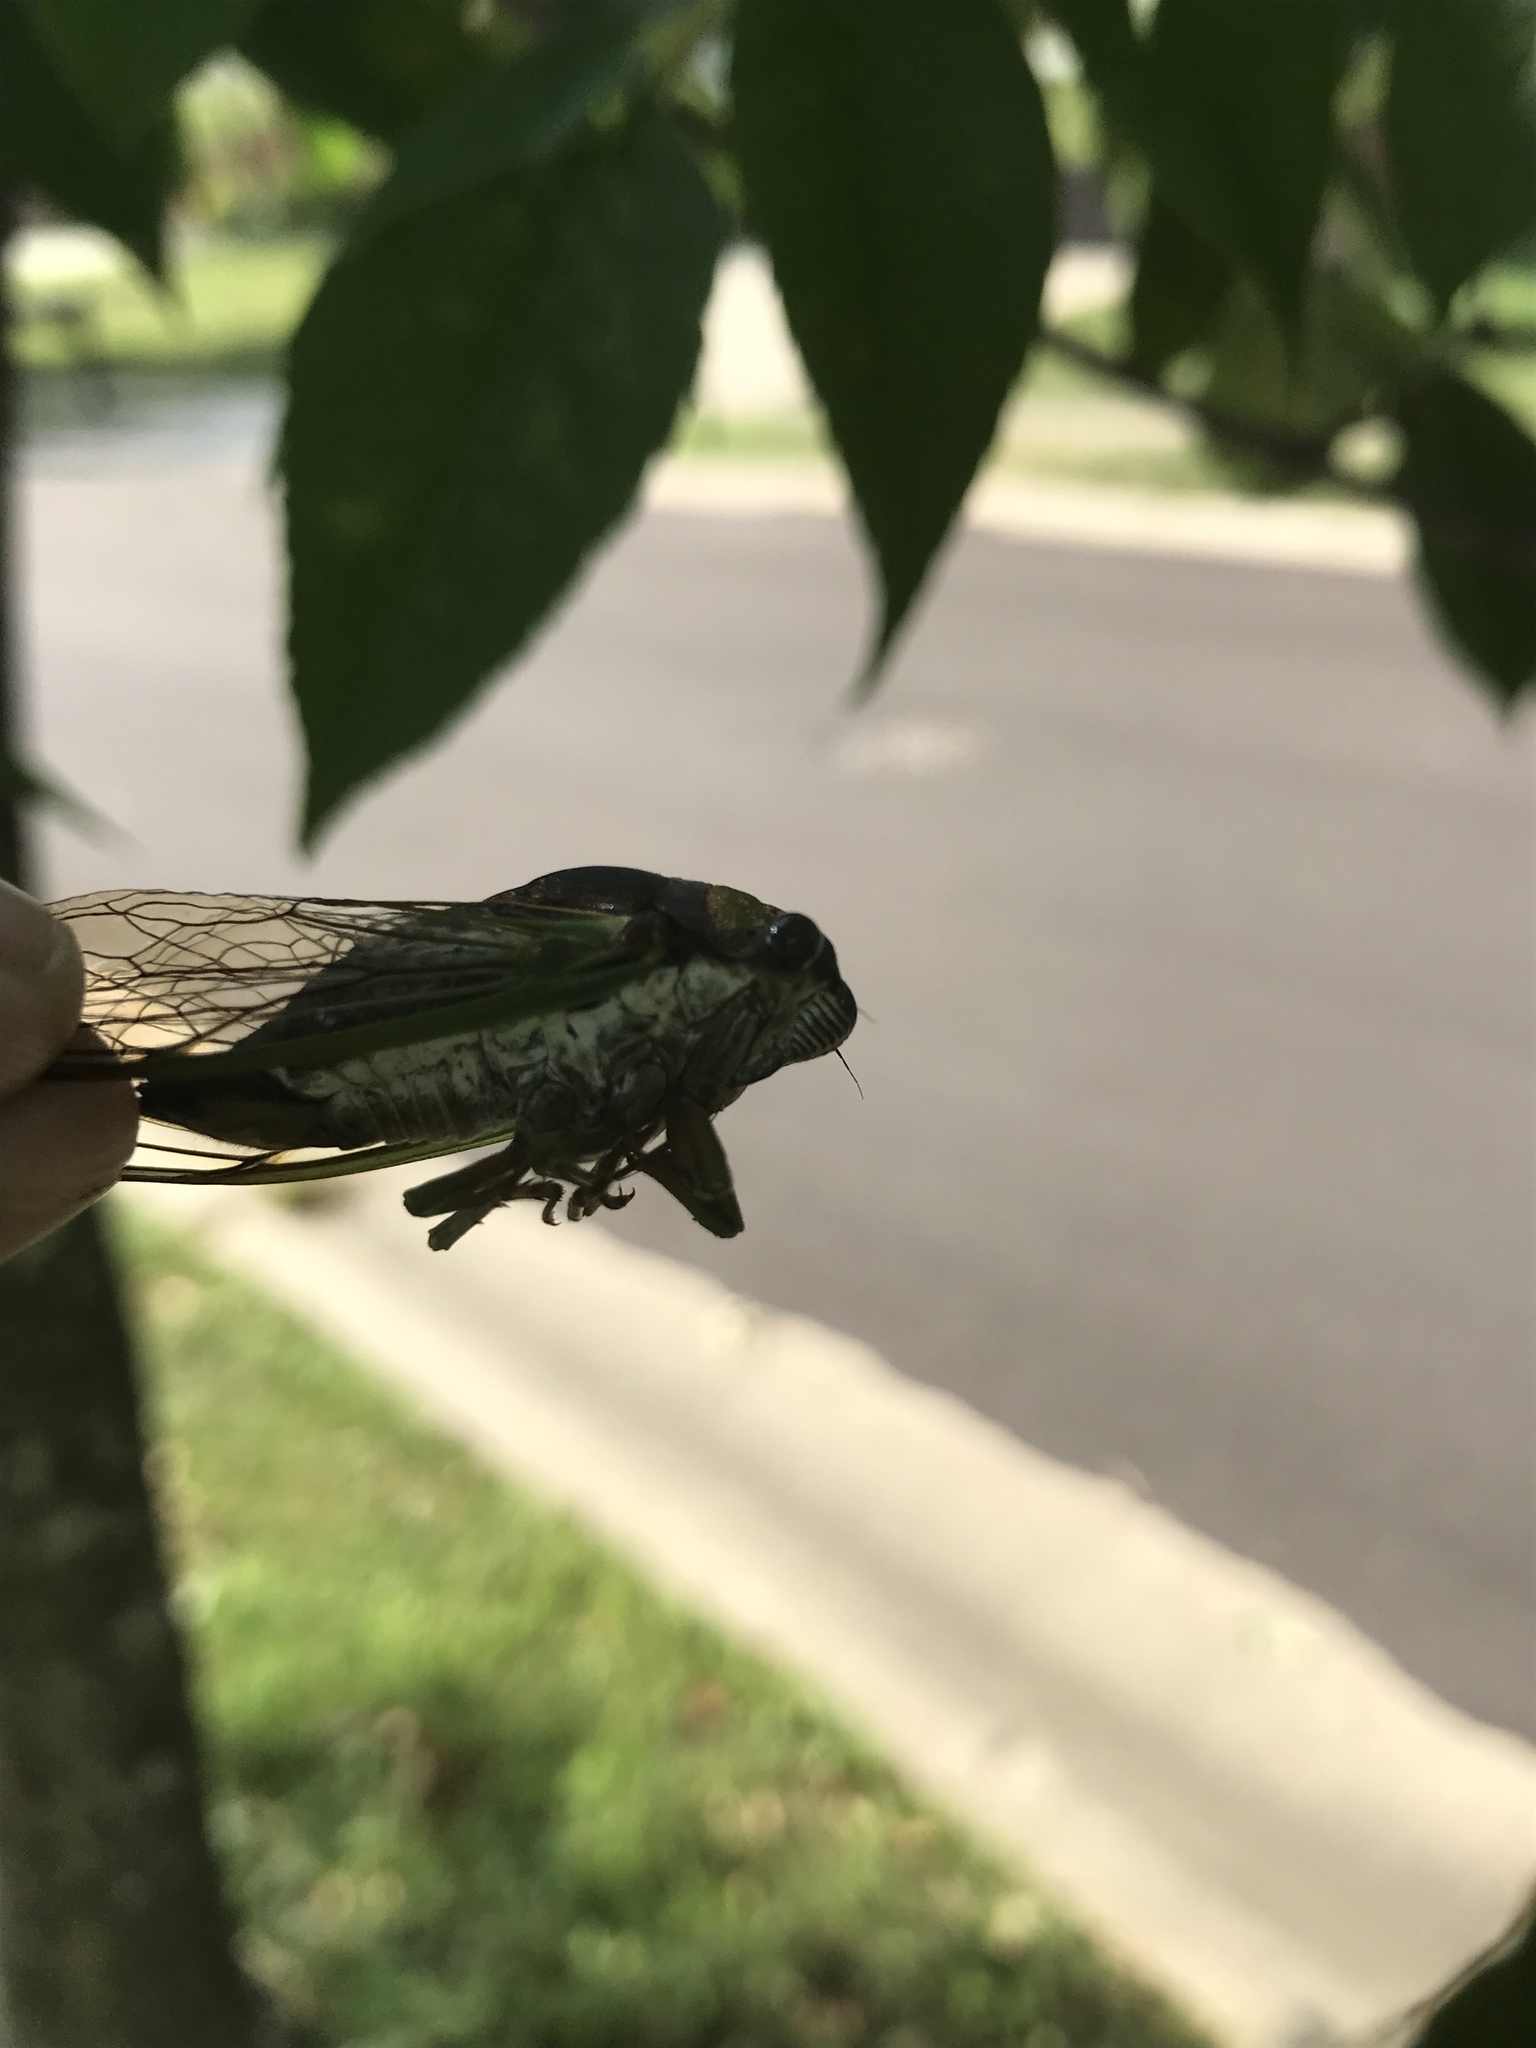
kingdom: Animalia
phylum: Arthropoda
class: Insecta
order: Hemiptera
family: Cicadidae
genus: Neotibicen
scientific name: Neotibicen tibicen
